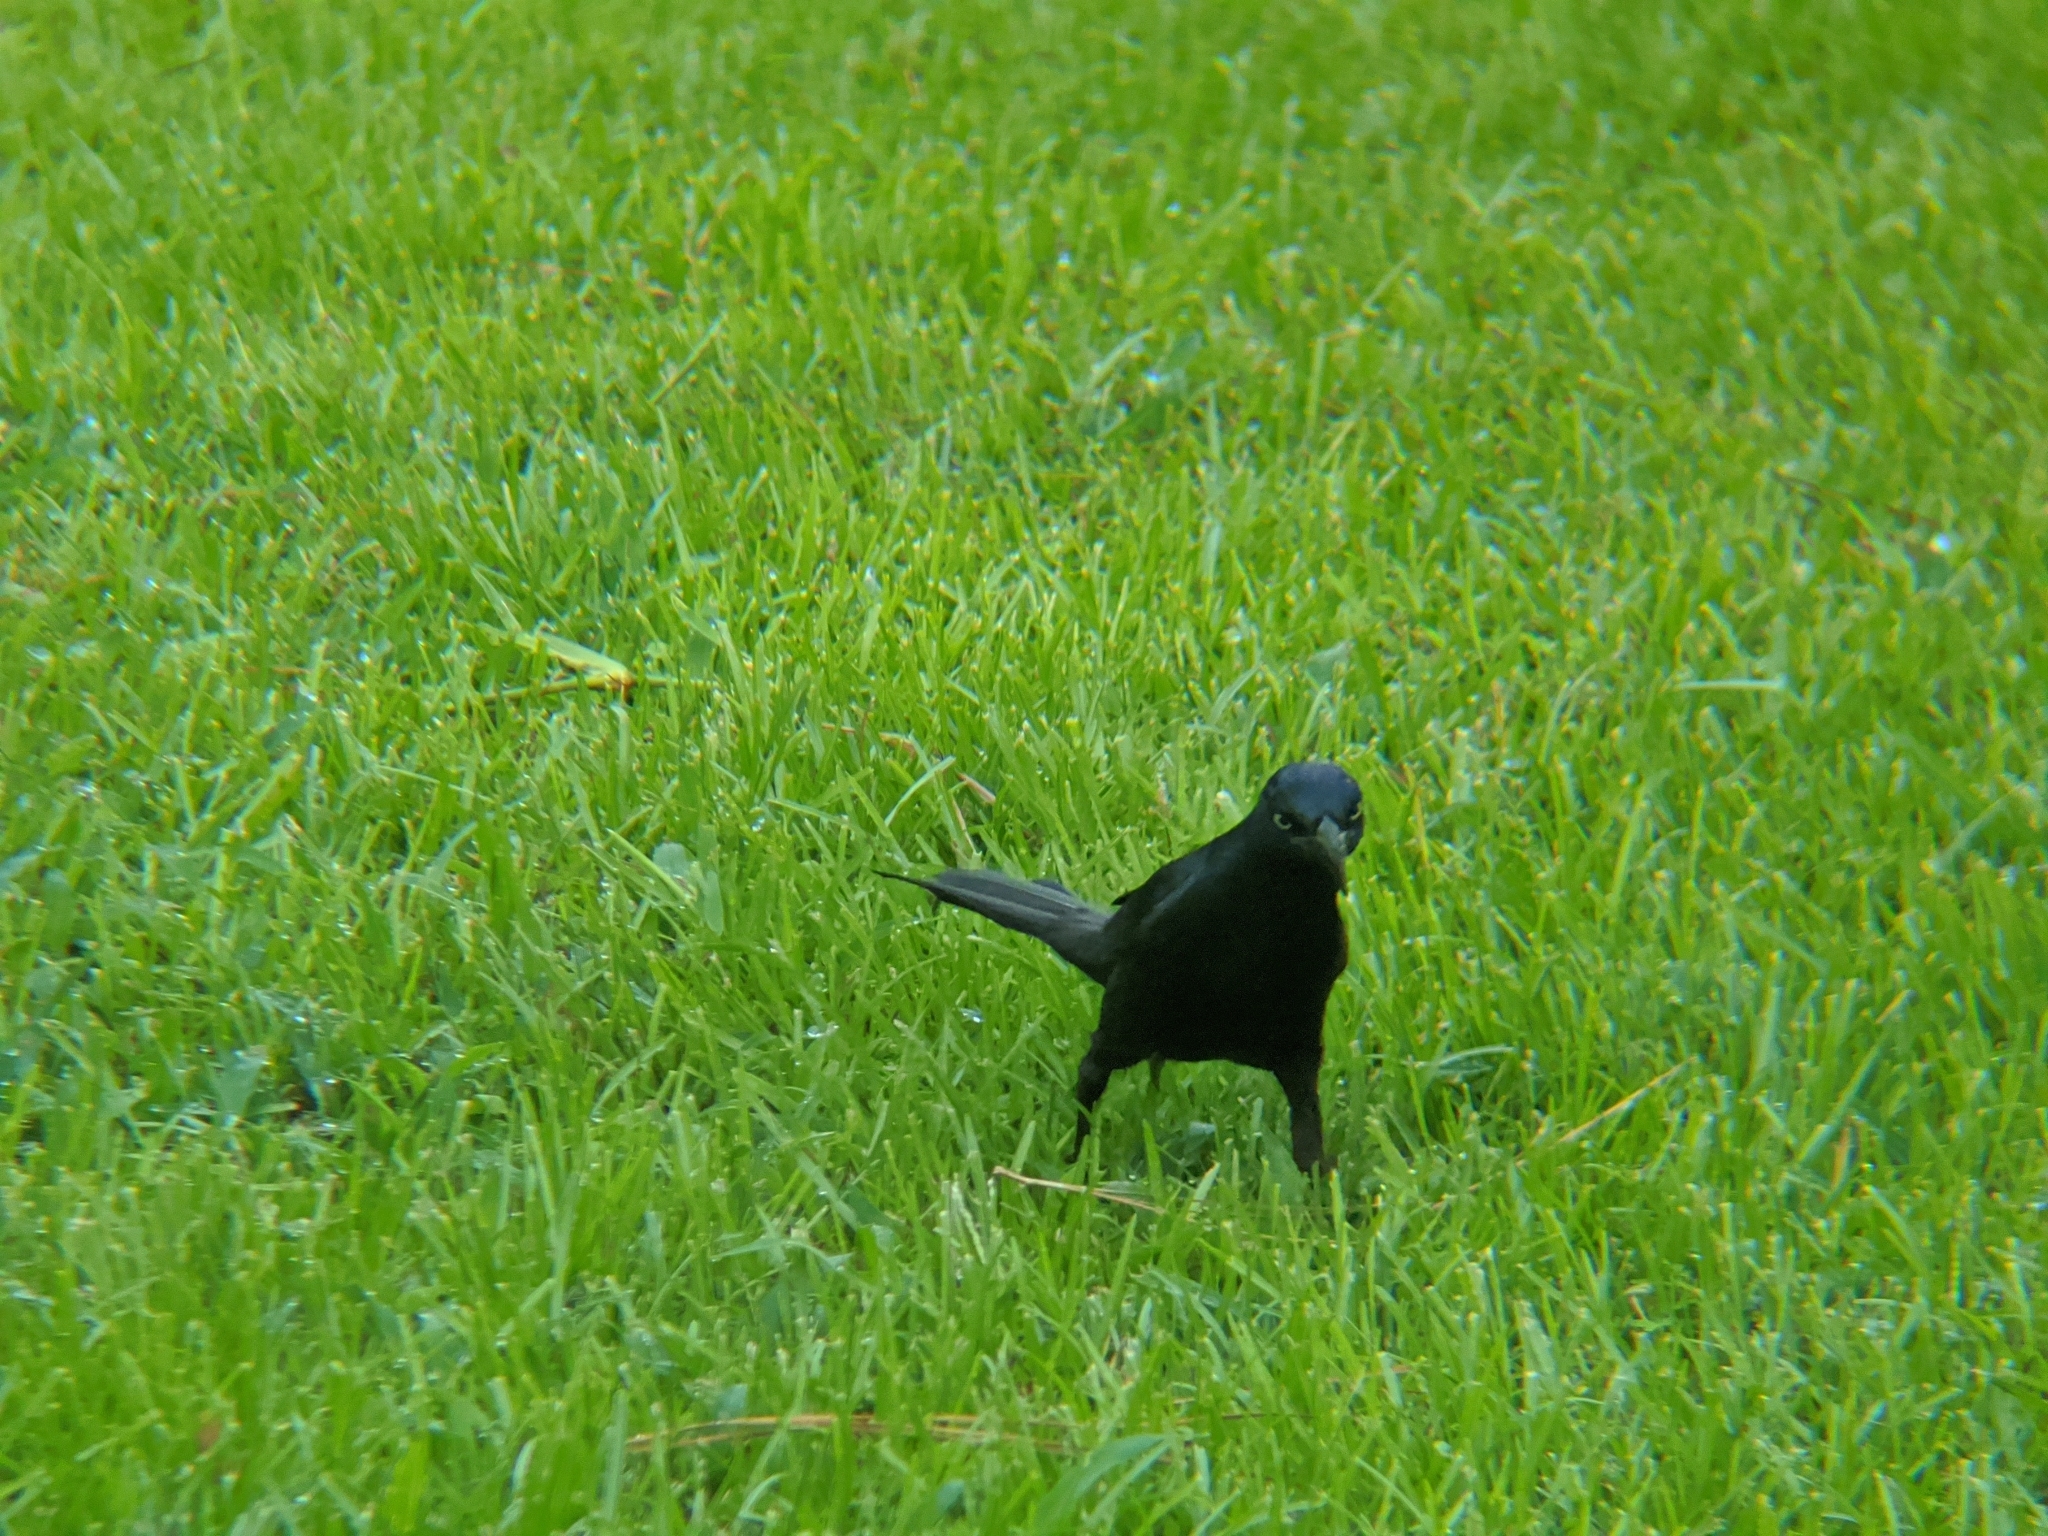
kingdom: Animalia
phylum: Chordata
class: Aves
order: Passeriformes
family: Icteridae
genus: Quiscalus
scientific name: Quiscalus quiscula
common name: Common grackle
